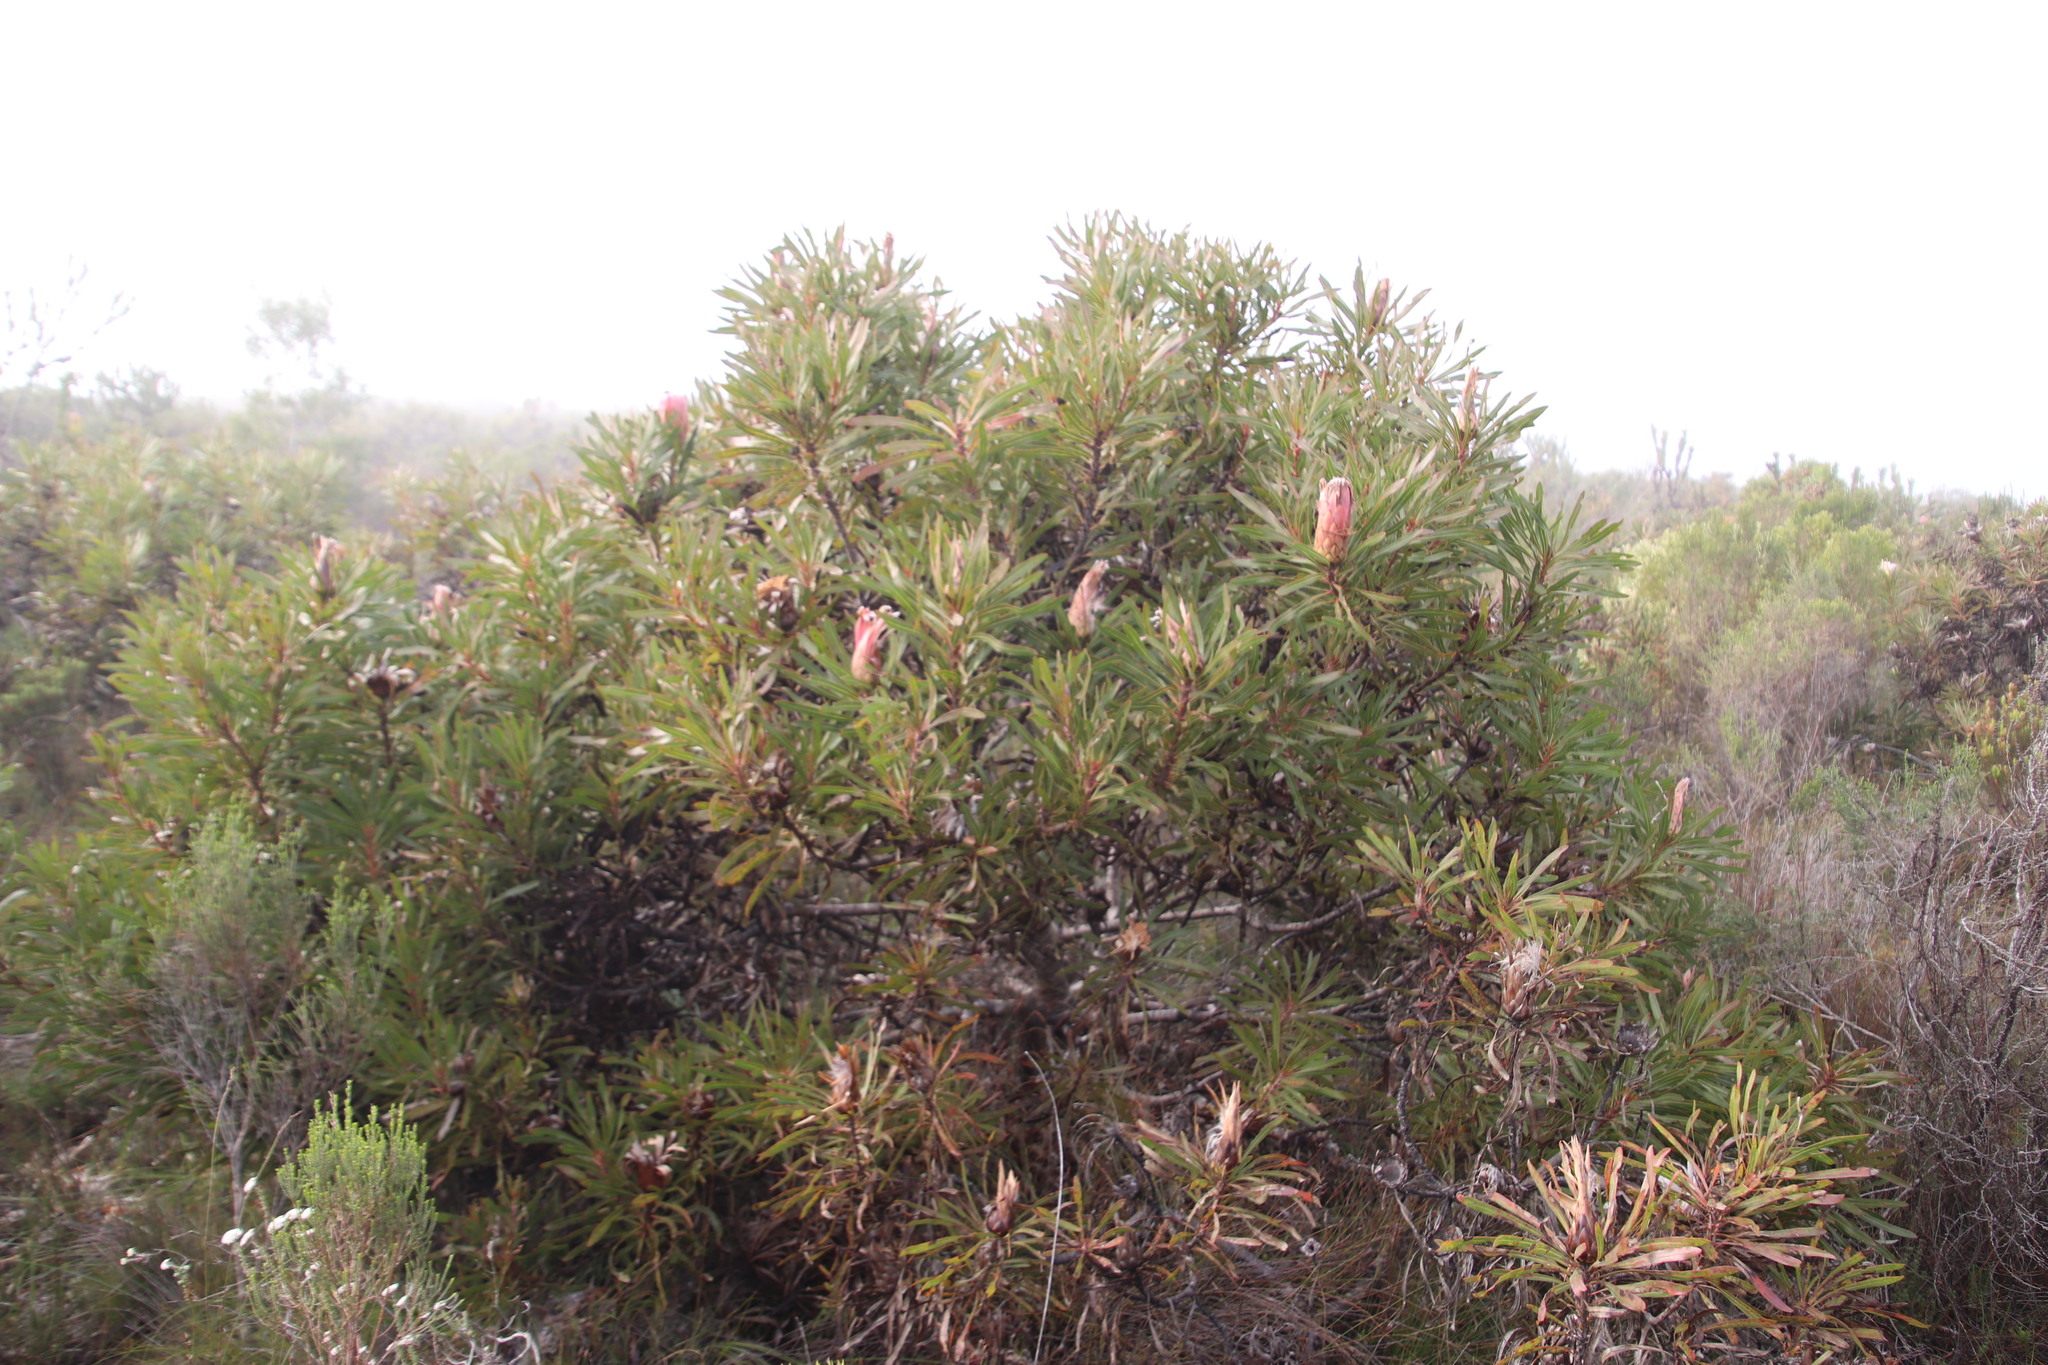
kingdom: Plantae
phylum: Tracheophyta
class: Magnoliopsida
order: Proteales
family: Proteaceae
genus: Protea
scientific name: Protea
